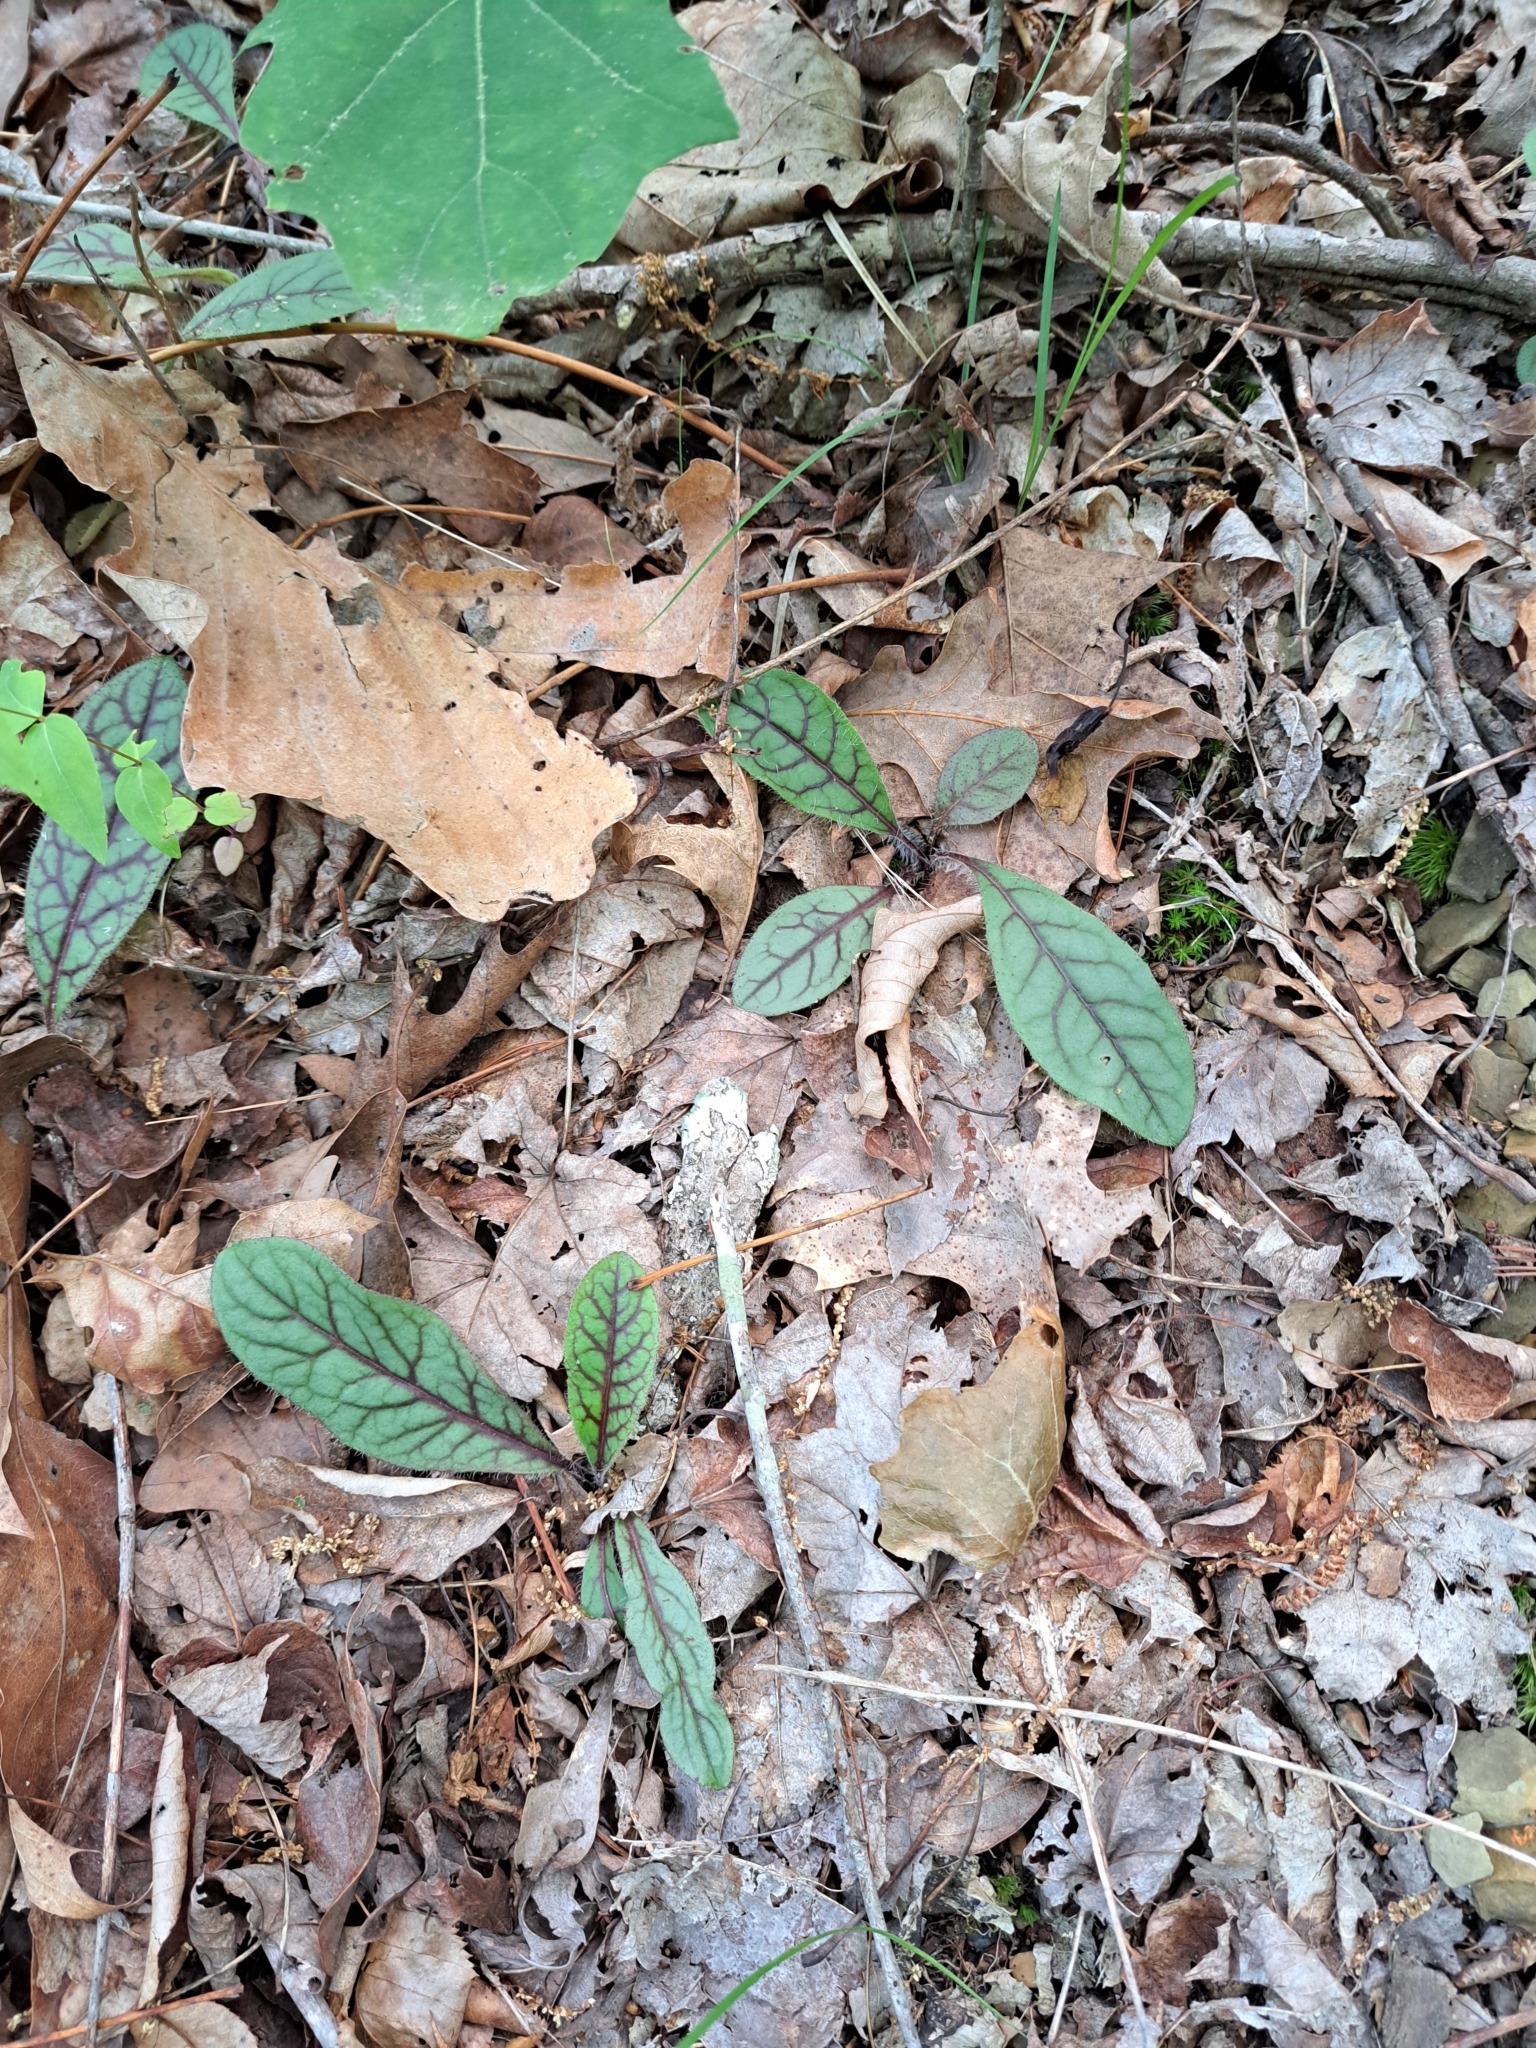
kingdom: Plantae
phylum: Tracheophyta
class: Magnoliopsida
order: Asterales
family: Asteraceae
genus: Hieracium
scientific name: Hieracium venosum
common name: Rattlesnake hawkweed
